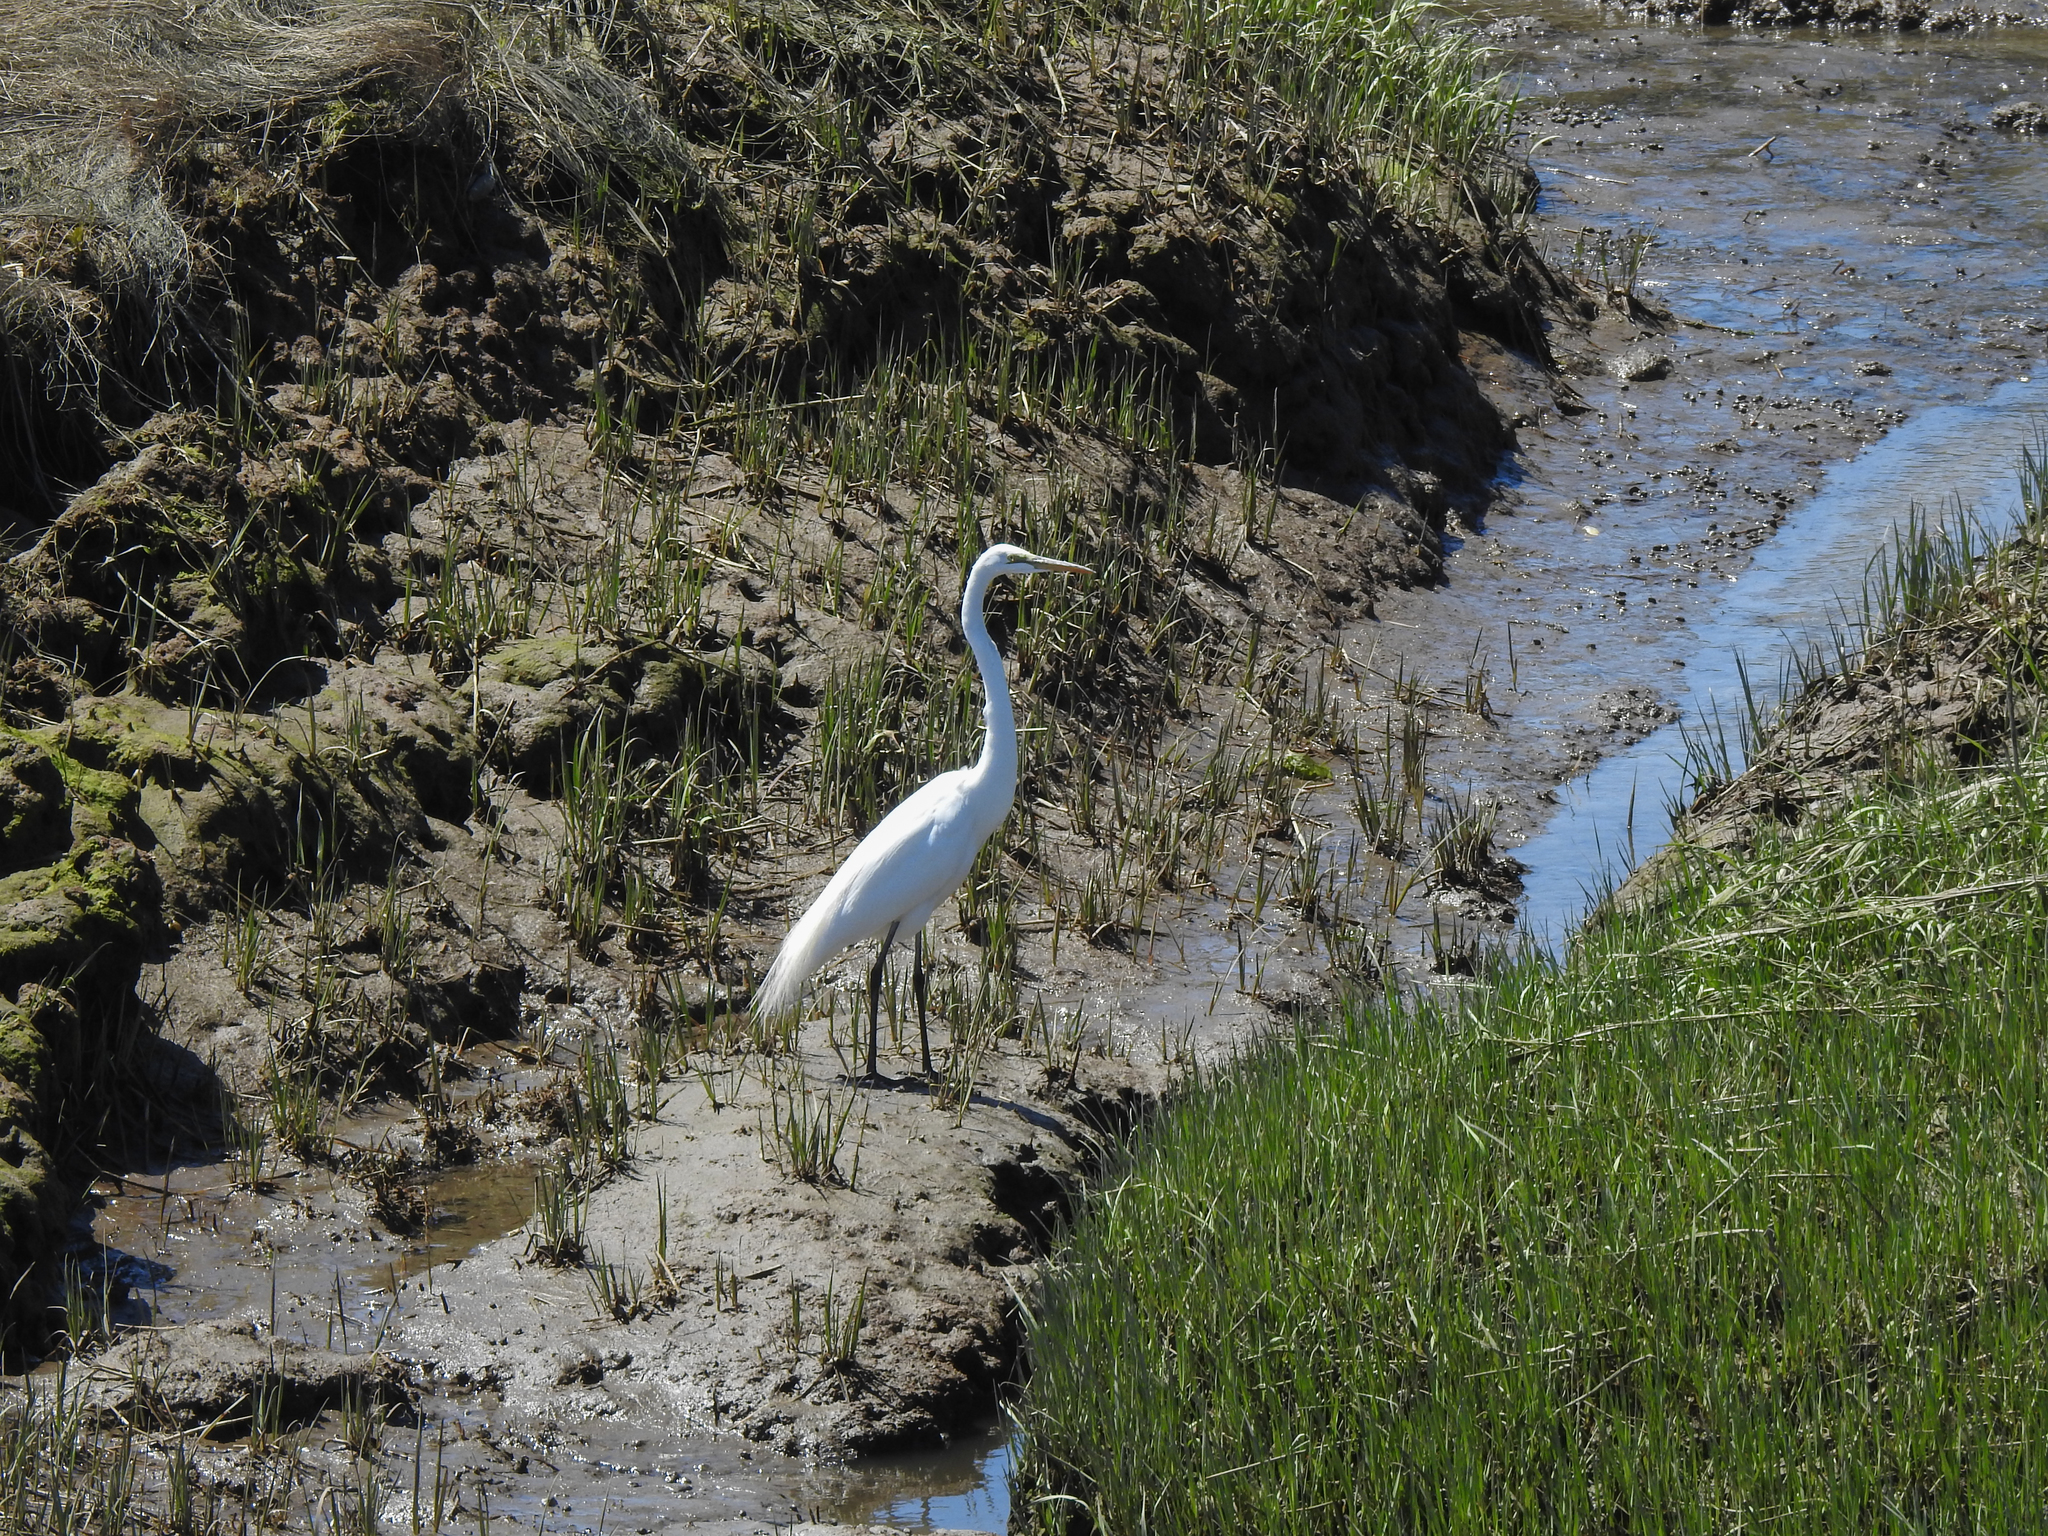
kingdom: Animalia
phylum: Chordata
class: Aves
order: Pelecaniformes
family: Ardeidae
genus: Ardea
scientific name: Ardea alba
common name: Great egret
